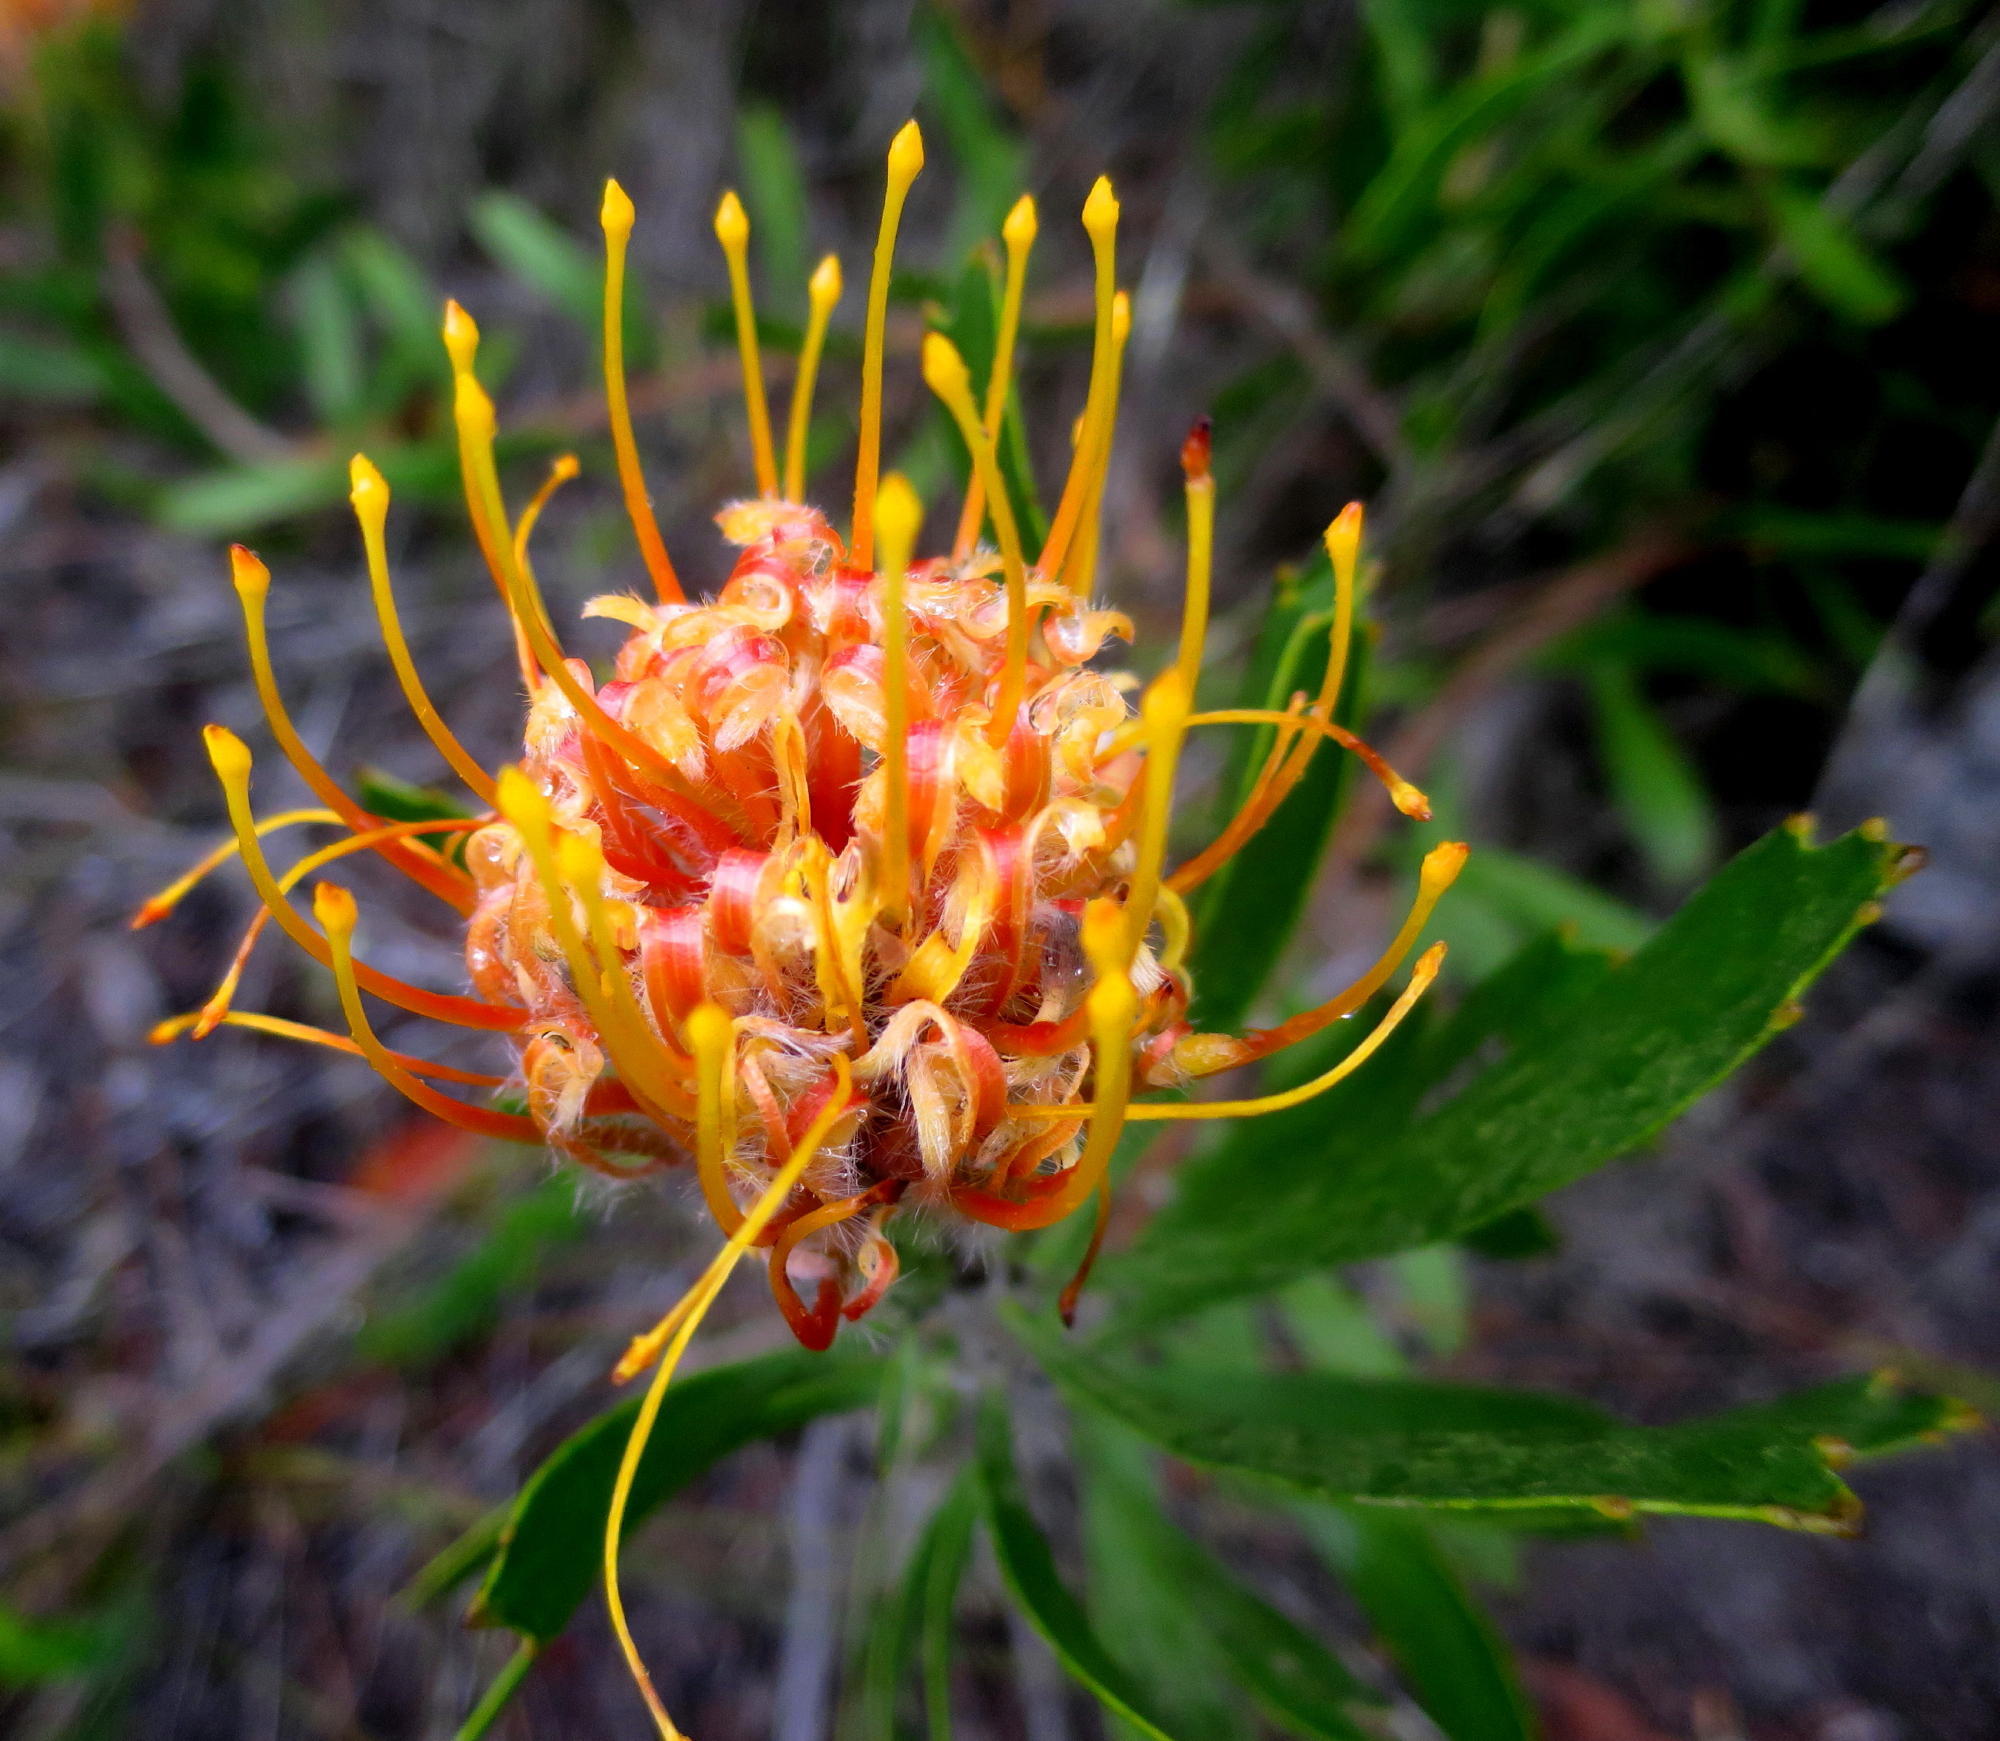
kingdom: Plantae
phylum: Tracheophyta
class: Magnoliopsida
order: Proteales
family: Proteaceae
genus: Leucospermum
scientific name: Leucospermum cuneiforme
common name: Common pincushion
